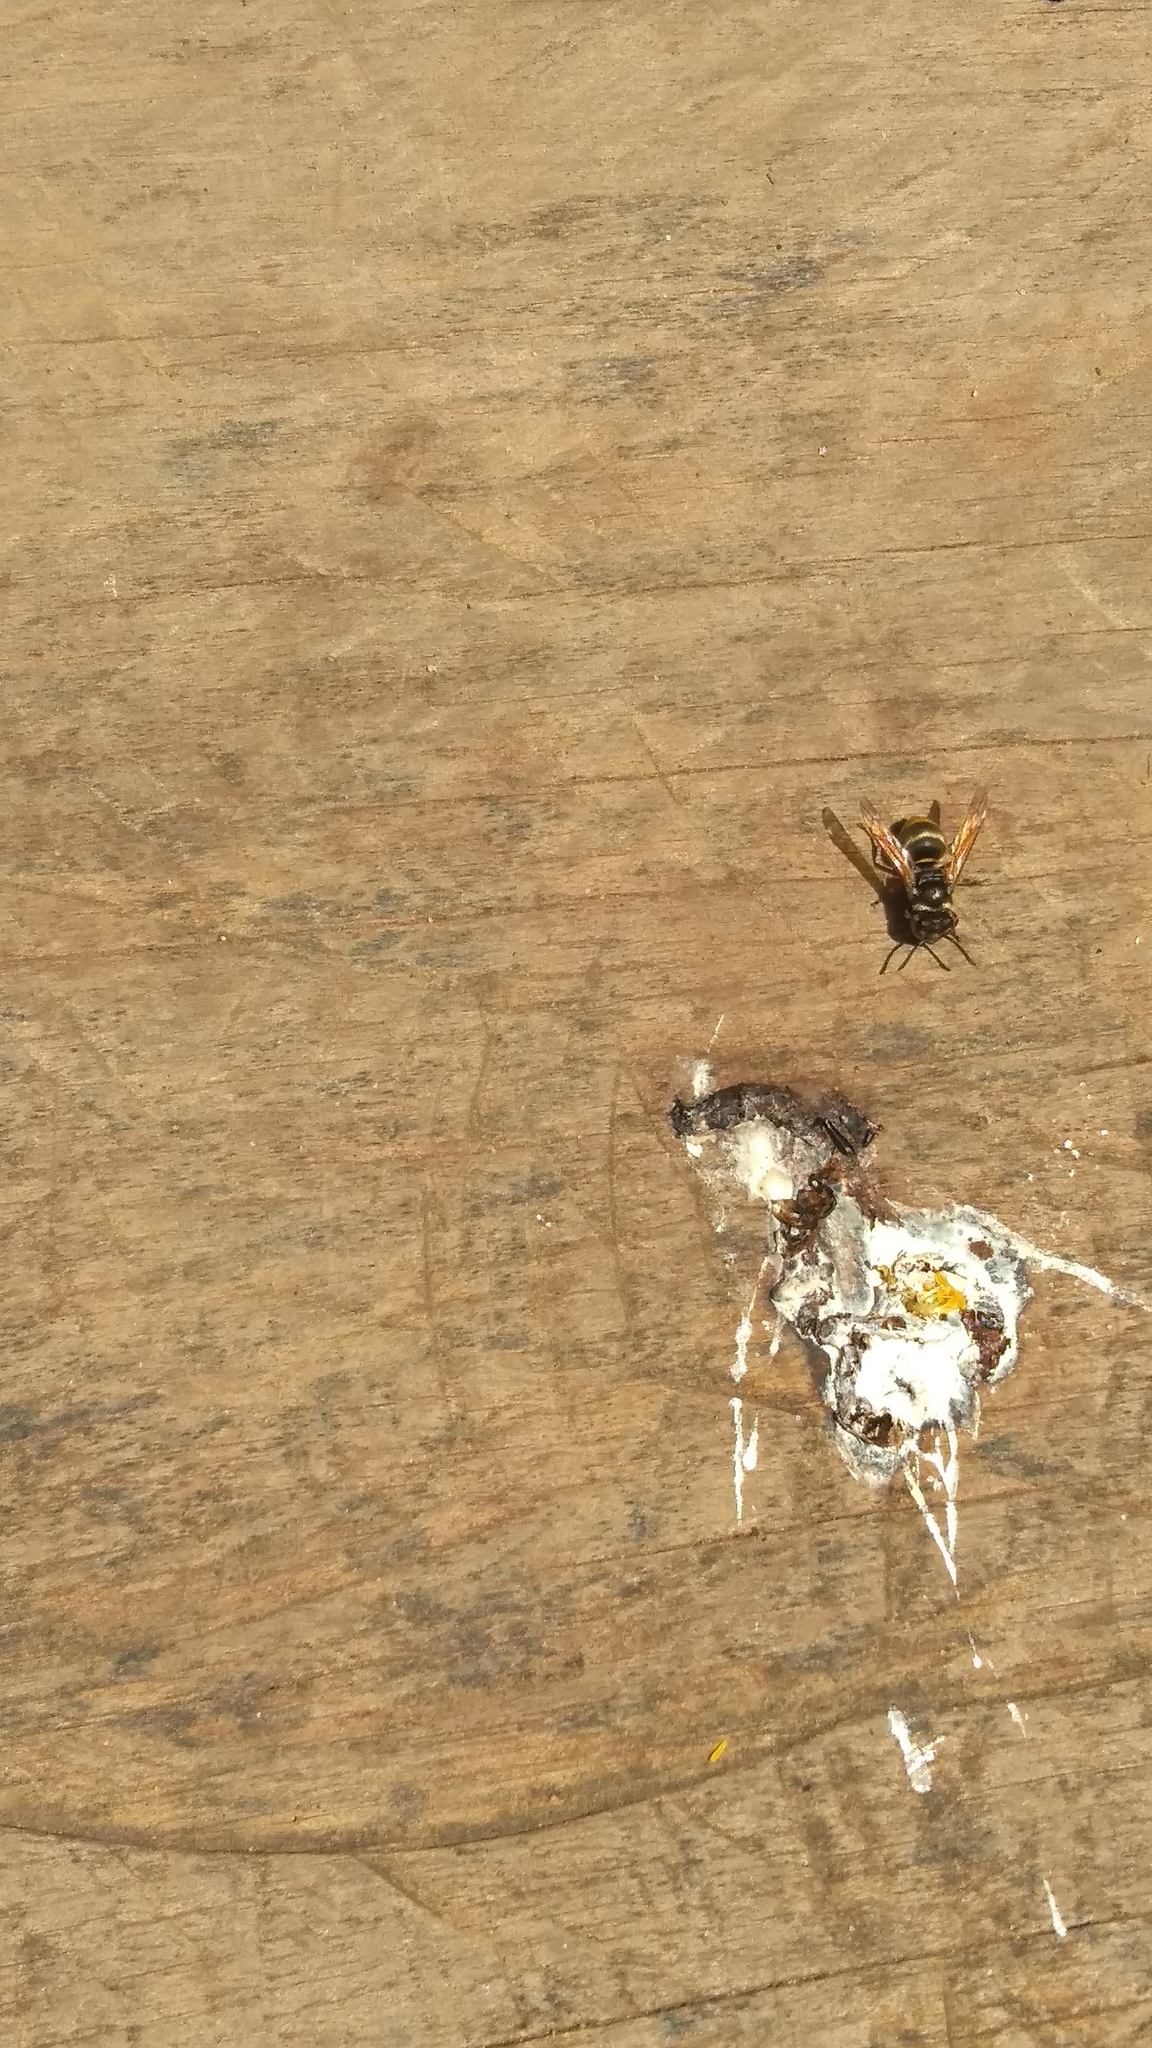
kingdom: Animalia
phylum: Arthropoda
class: Insecta
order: Hymenoptera
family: Vespidae
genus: Brachygastra
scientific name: Brachygastra mellifica
